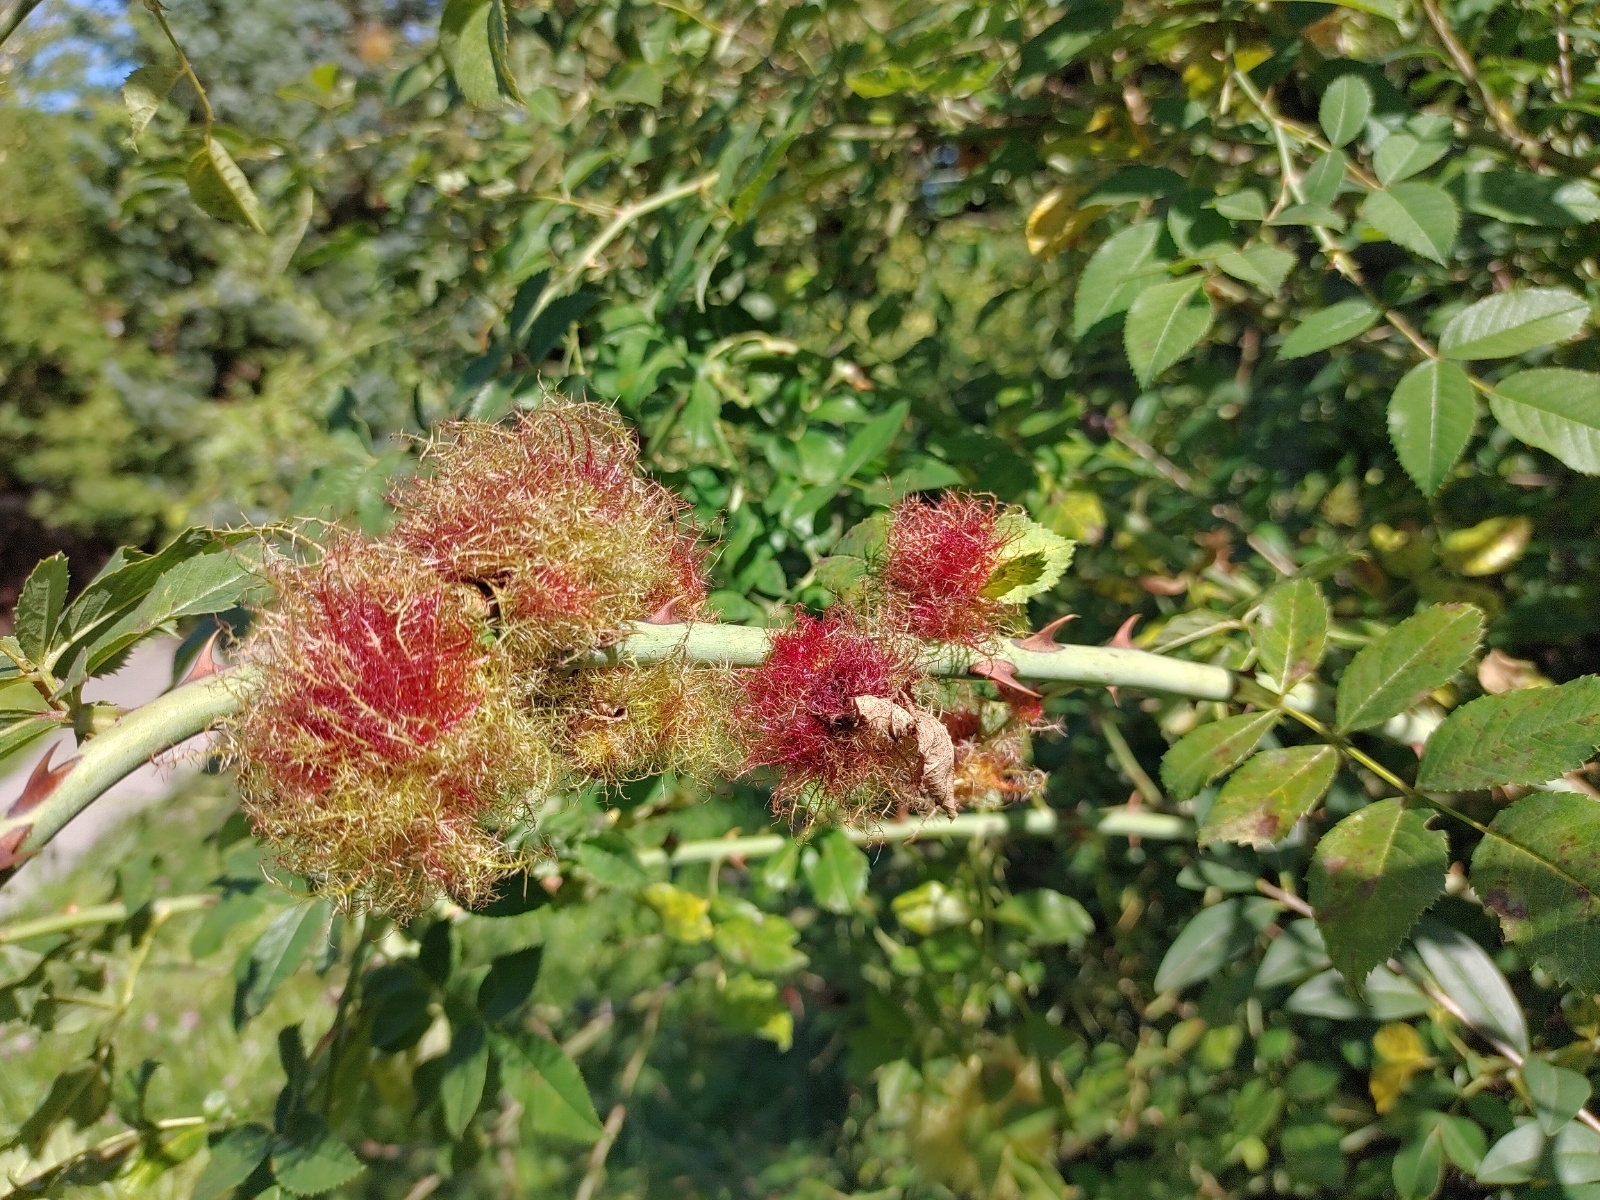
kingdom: Animalia
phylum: Arthropoda
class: Insecta
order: Hymenoptera
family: Cynipidae
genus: Diplolepis
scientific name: Diplolepis rosae
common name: Bedeguar gall
